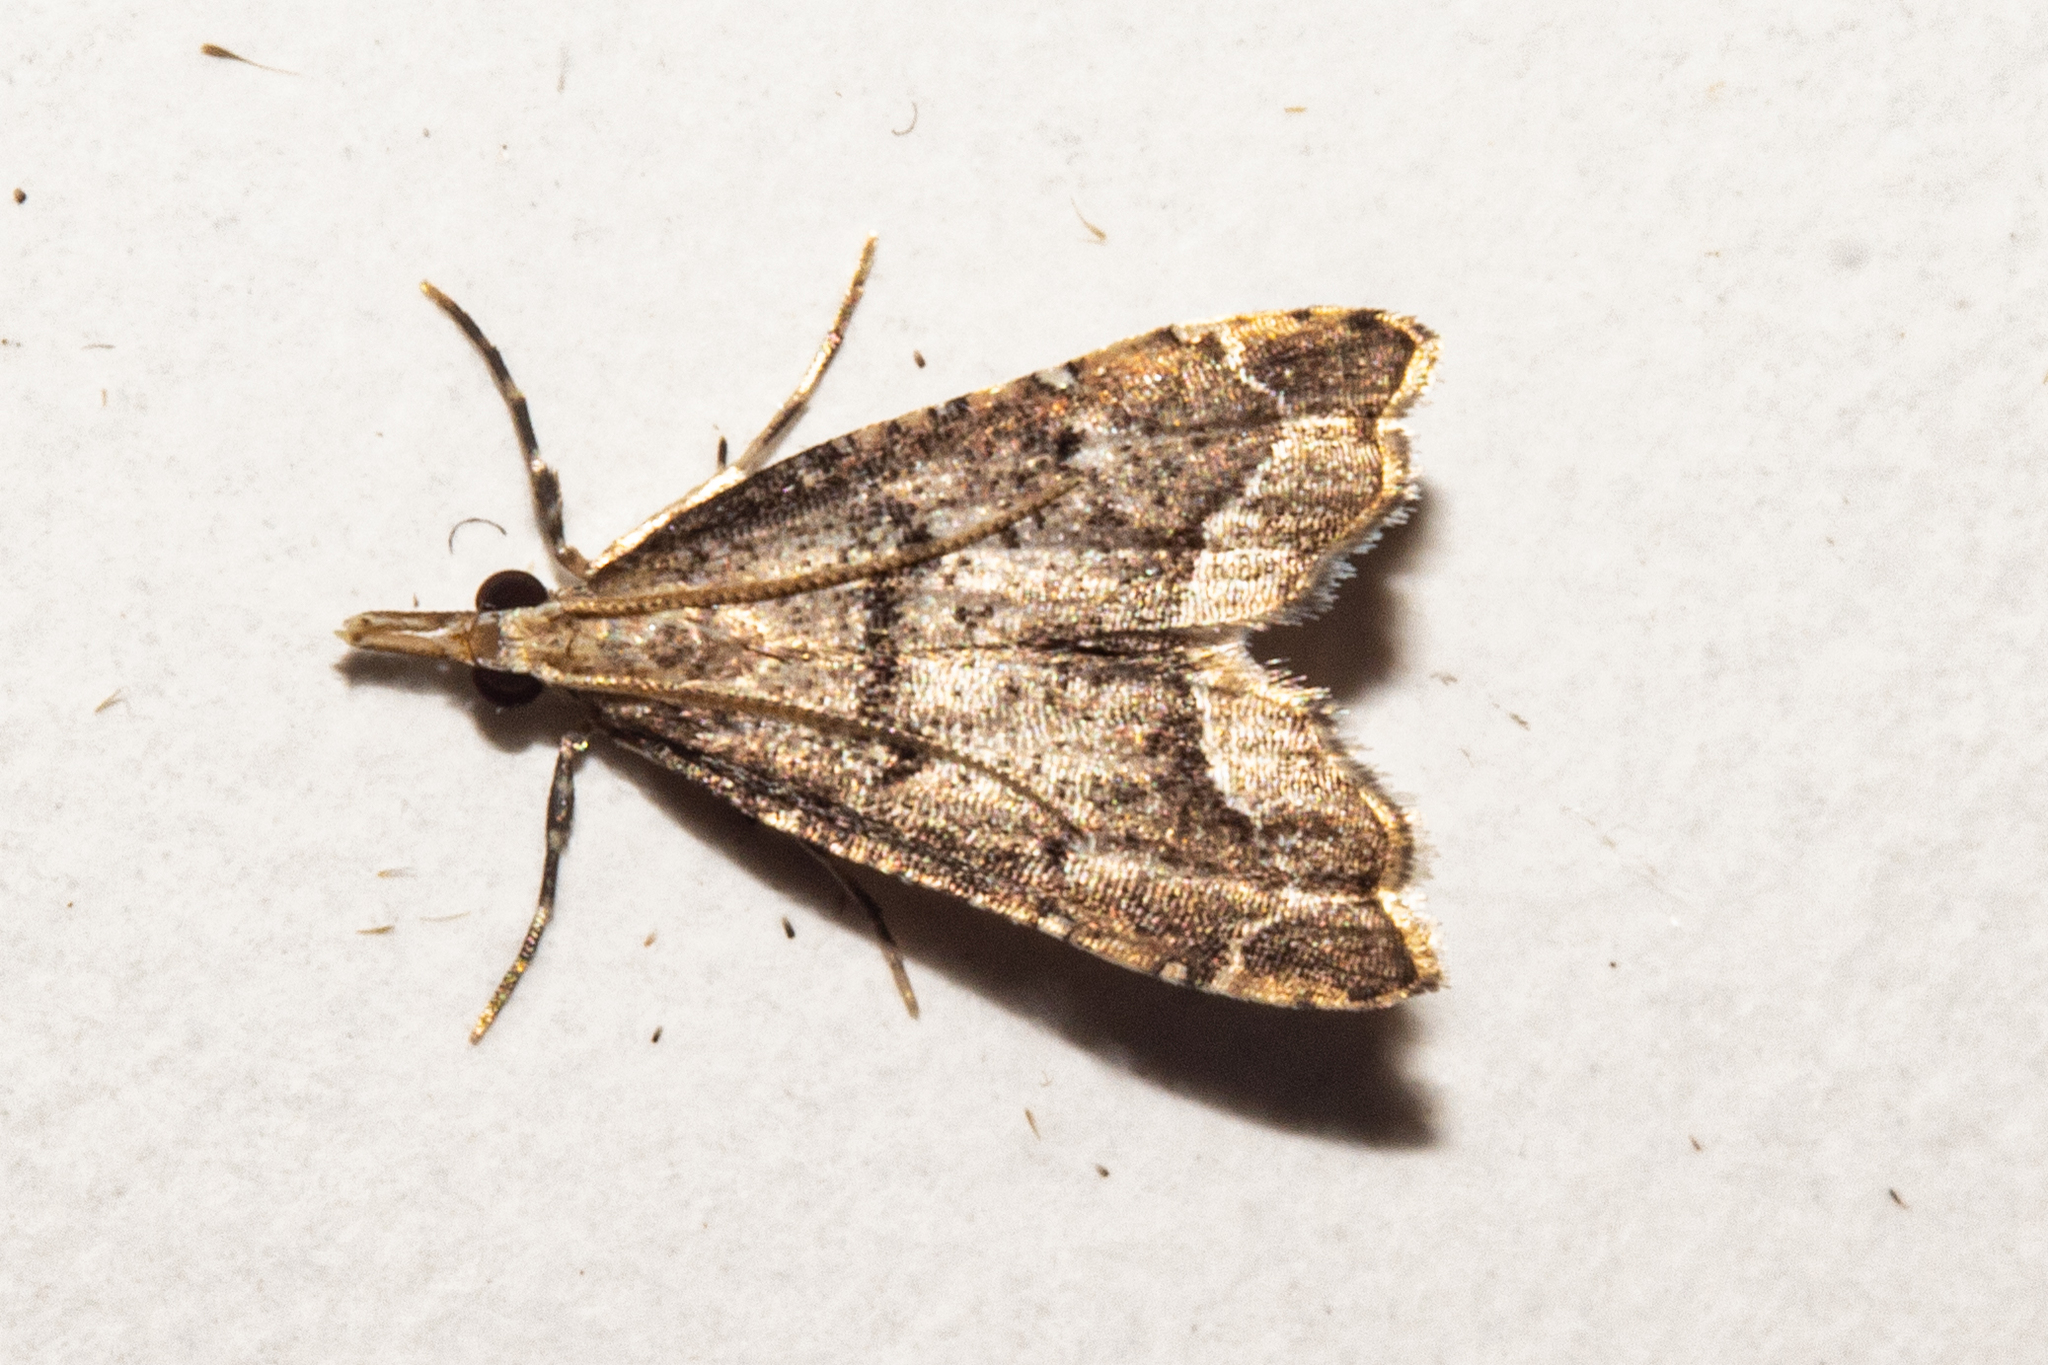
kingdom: Animalia
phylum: Arthropoda
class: Insecta
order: Lepidoptera
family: Crambidae
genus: Diplopseustis
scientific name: Diplopseustis perieresalis
